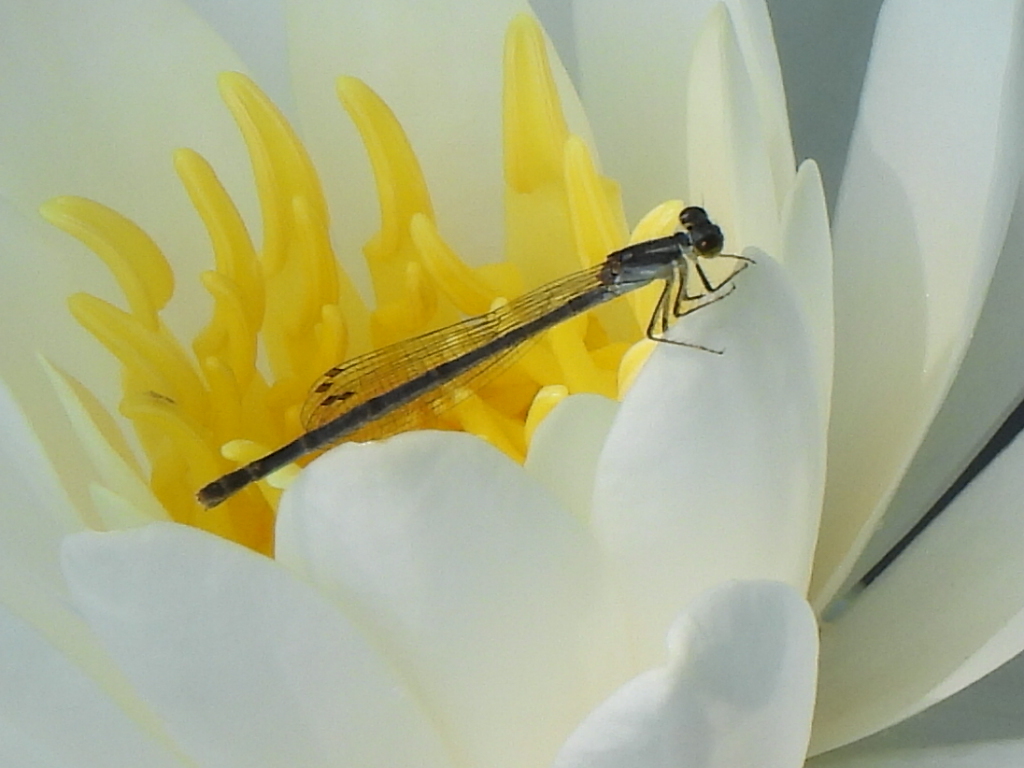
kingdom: Animalia
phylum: Arthropoda
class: Insecta
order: Odonata
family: Coenagrionidae
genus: Ischnura
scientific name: Ischnura posita
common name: Fragile forktail
